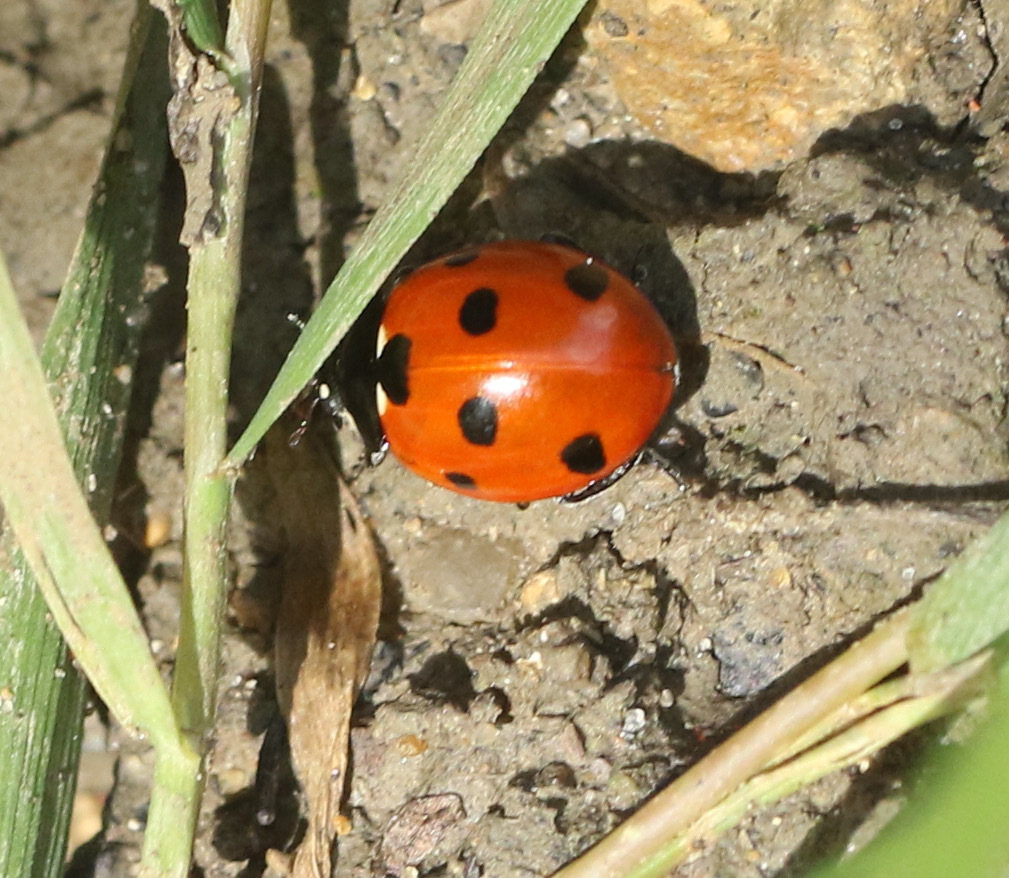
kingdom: Animalia
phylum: Arthropoda
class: Insecta
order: Coleoptera
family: Coccinellidae
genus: Coccinella
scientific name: Coccinella septempunctata
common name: Sevenspotted lady beetle
